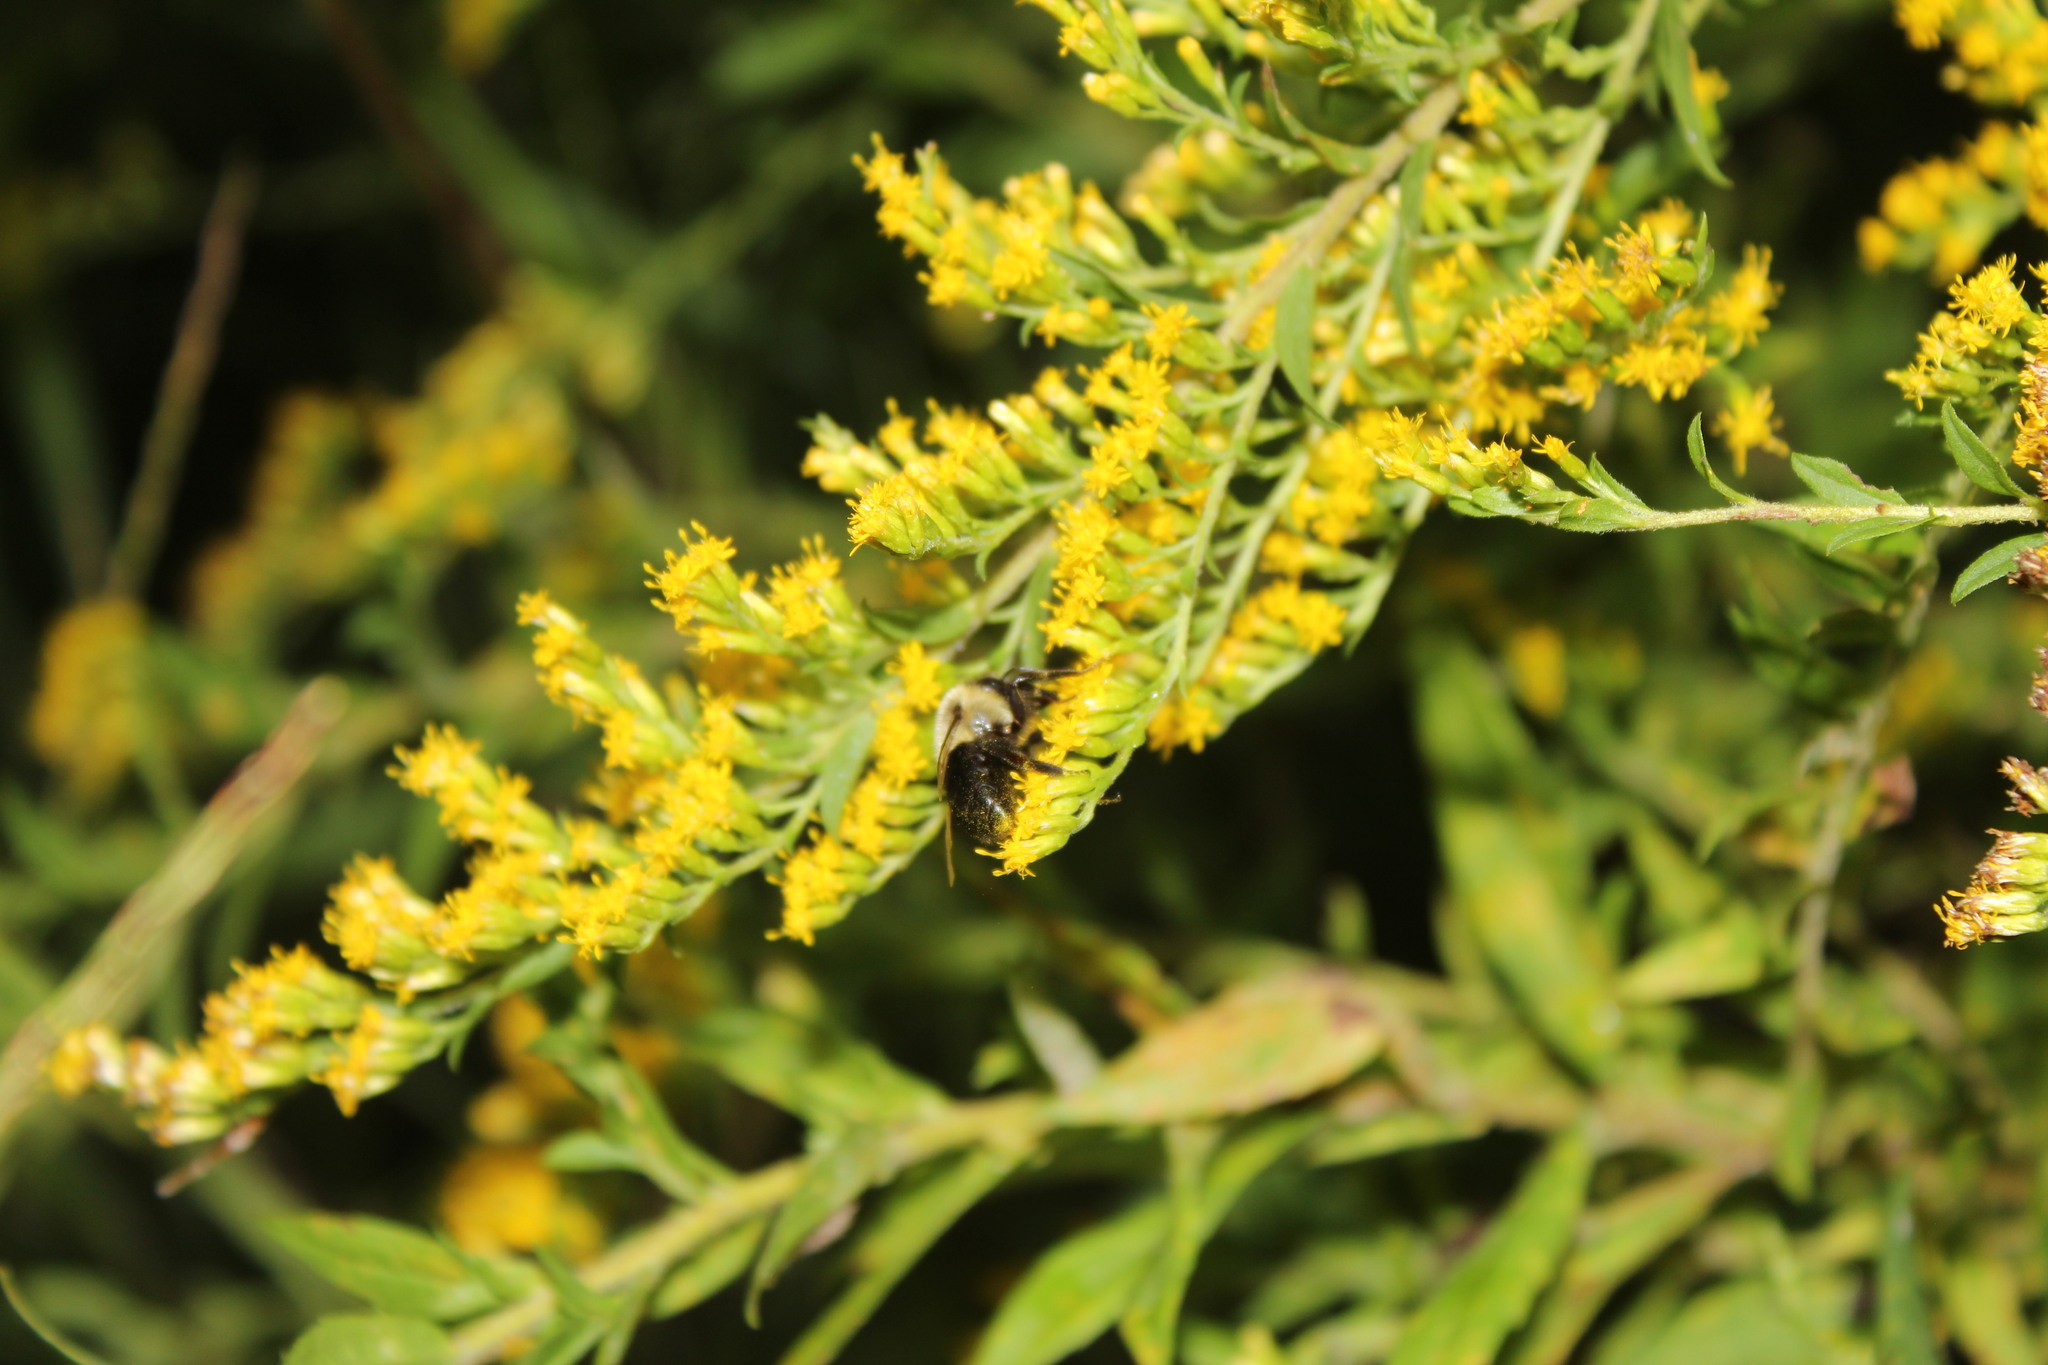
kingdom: Animalia
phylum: Arthropoda
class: Insecta
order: Hymenoptera
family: Apidae
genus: Bombus
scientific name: Bombus impatiens
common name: Common eastern bumble bee
